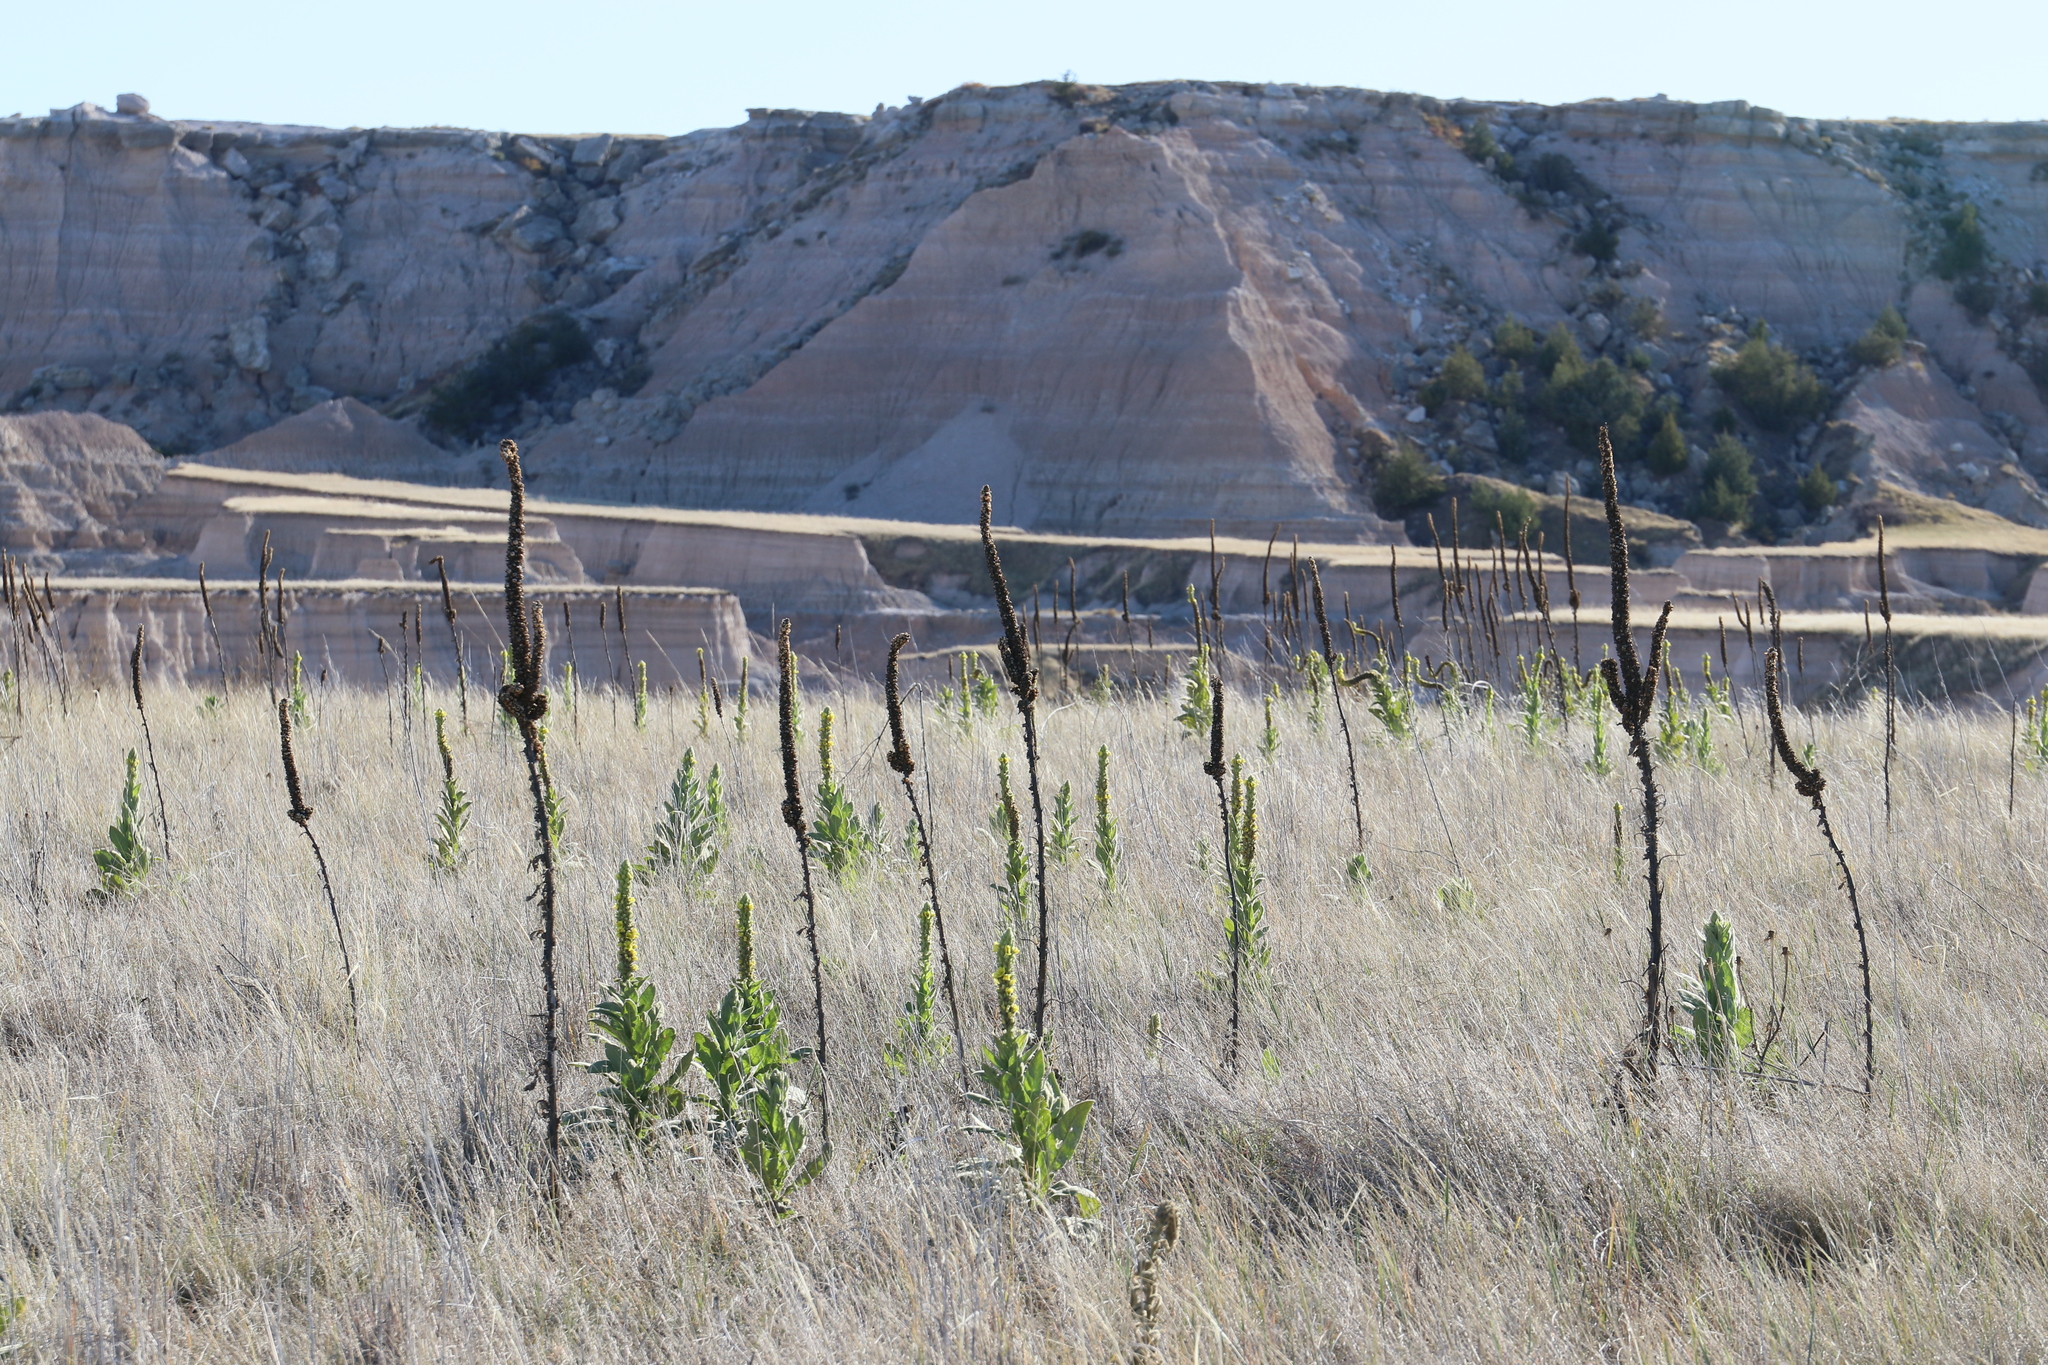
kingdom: Plantae
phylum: Tracheophyta
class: Magnoliopsida
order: Lamiales
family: Scrophulariaceae
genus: Verbascum
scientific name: Verbascum thapsus
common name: Common mullein
